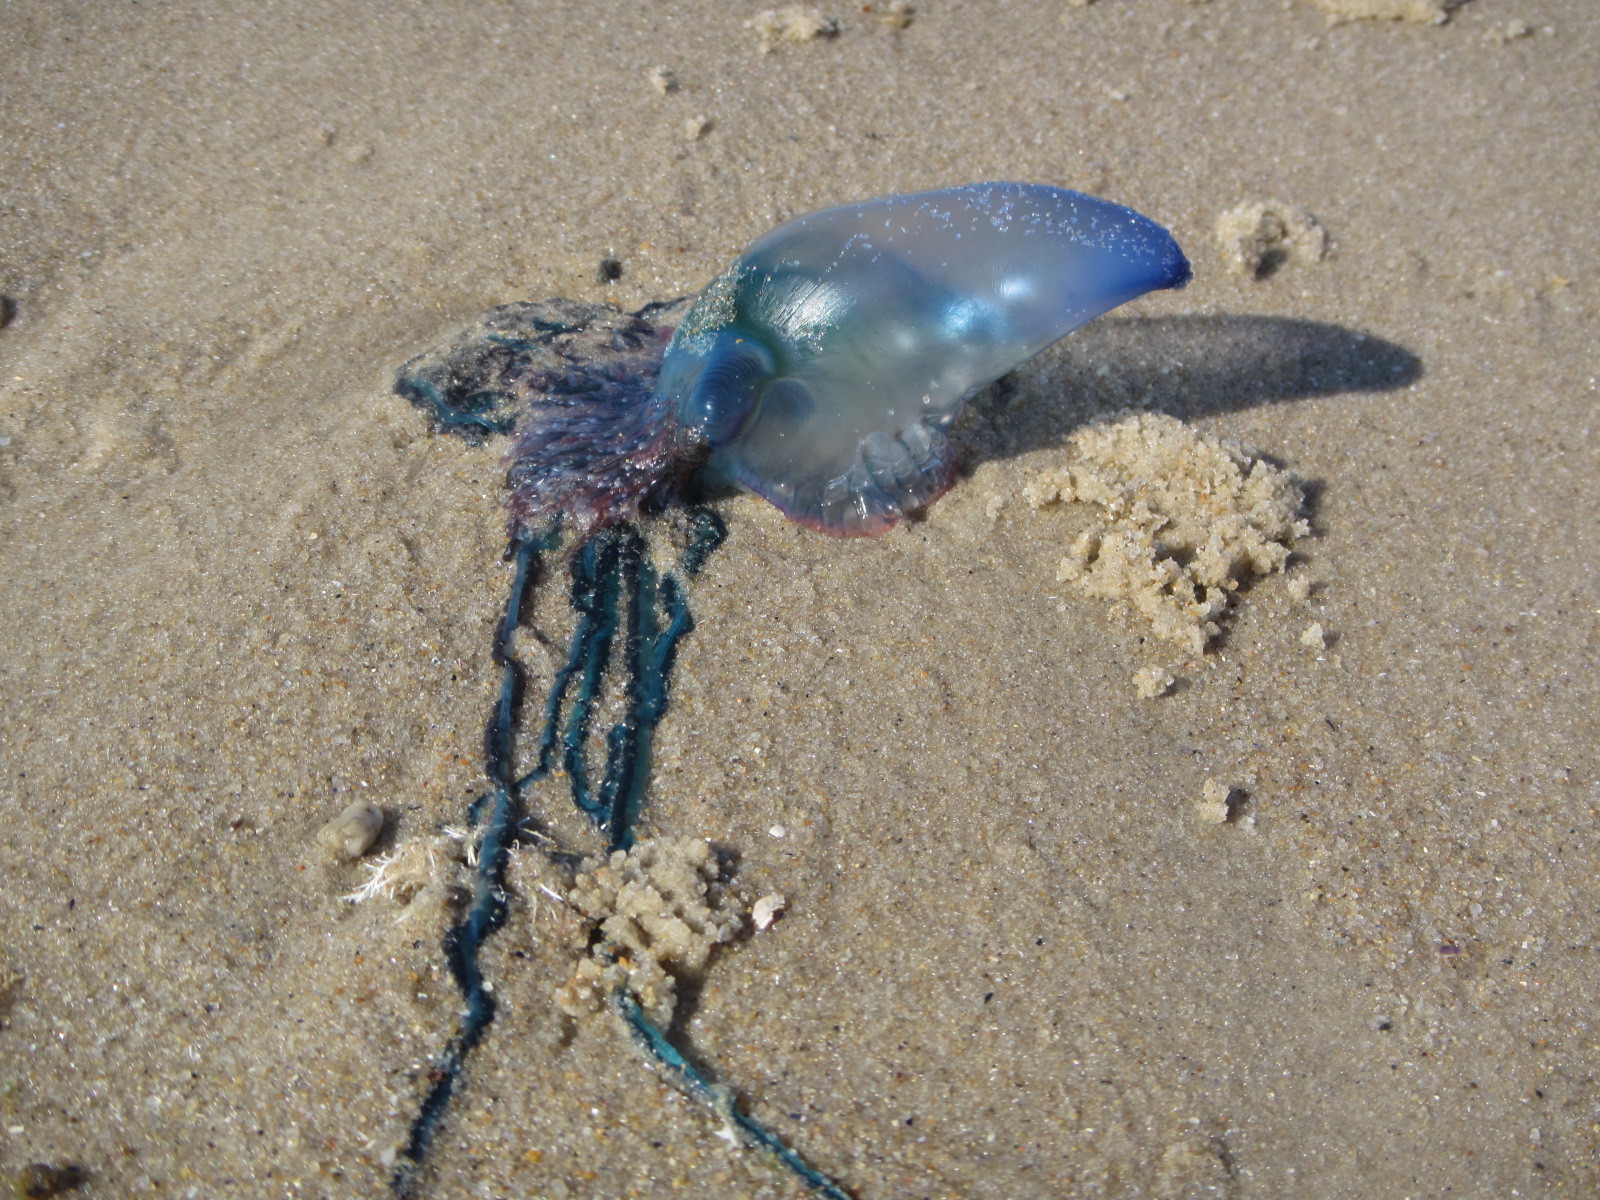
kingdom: Animalia
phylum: Cnidaria
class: Hydrozoa
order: Siphonophorae
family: Physaliidae
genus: Physalia
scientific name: Physalia physalis
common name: Portuguese man-of-war
